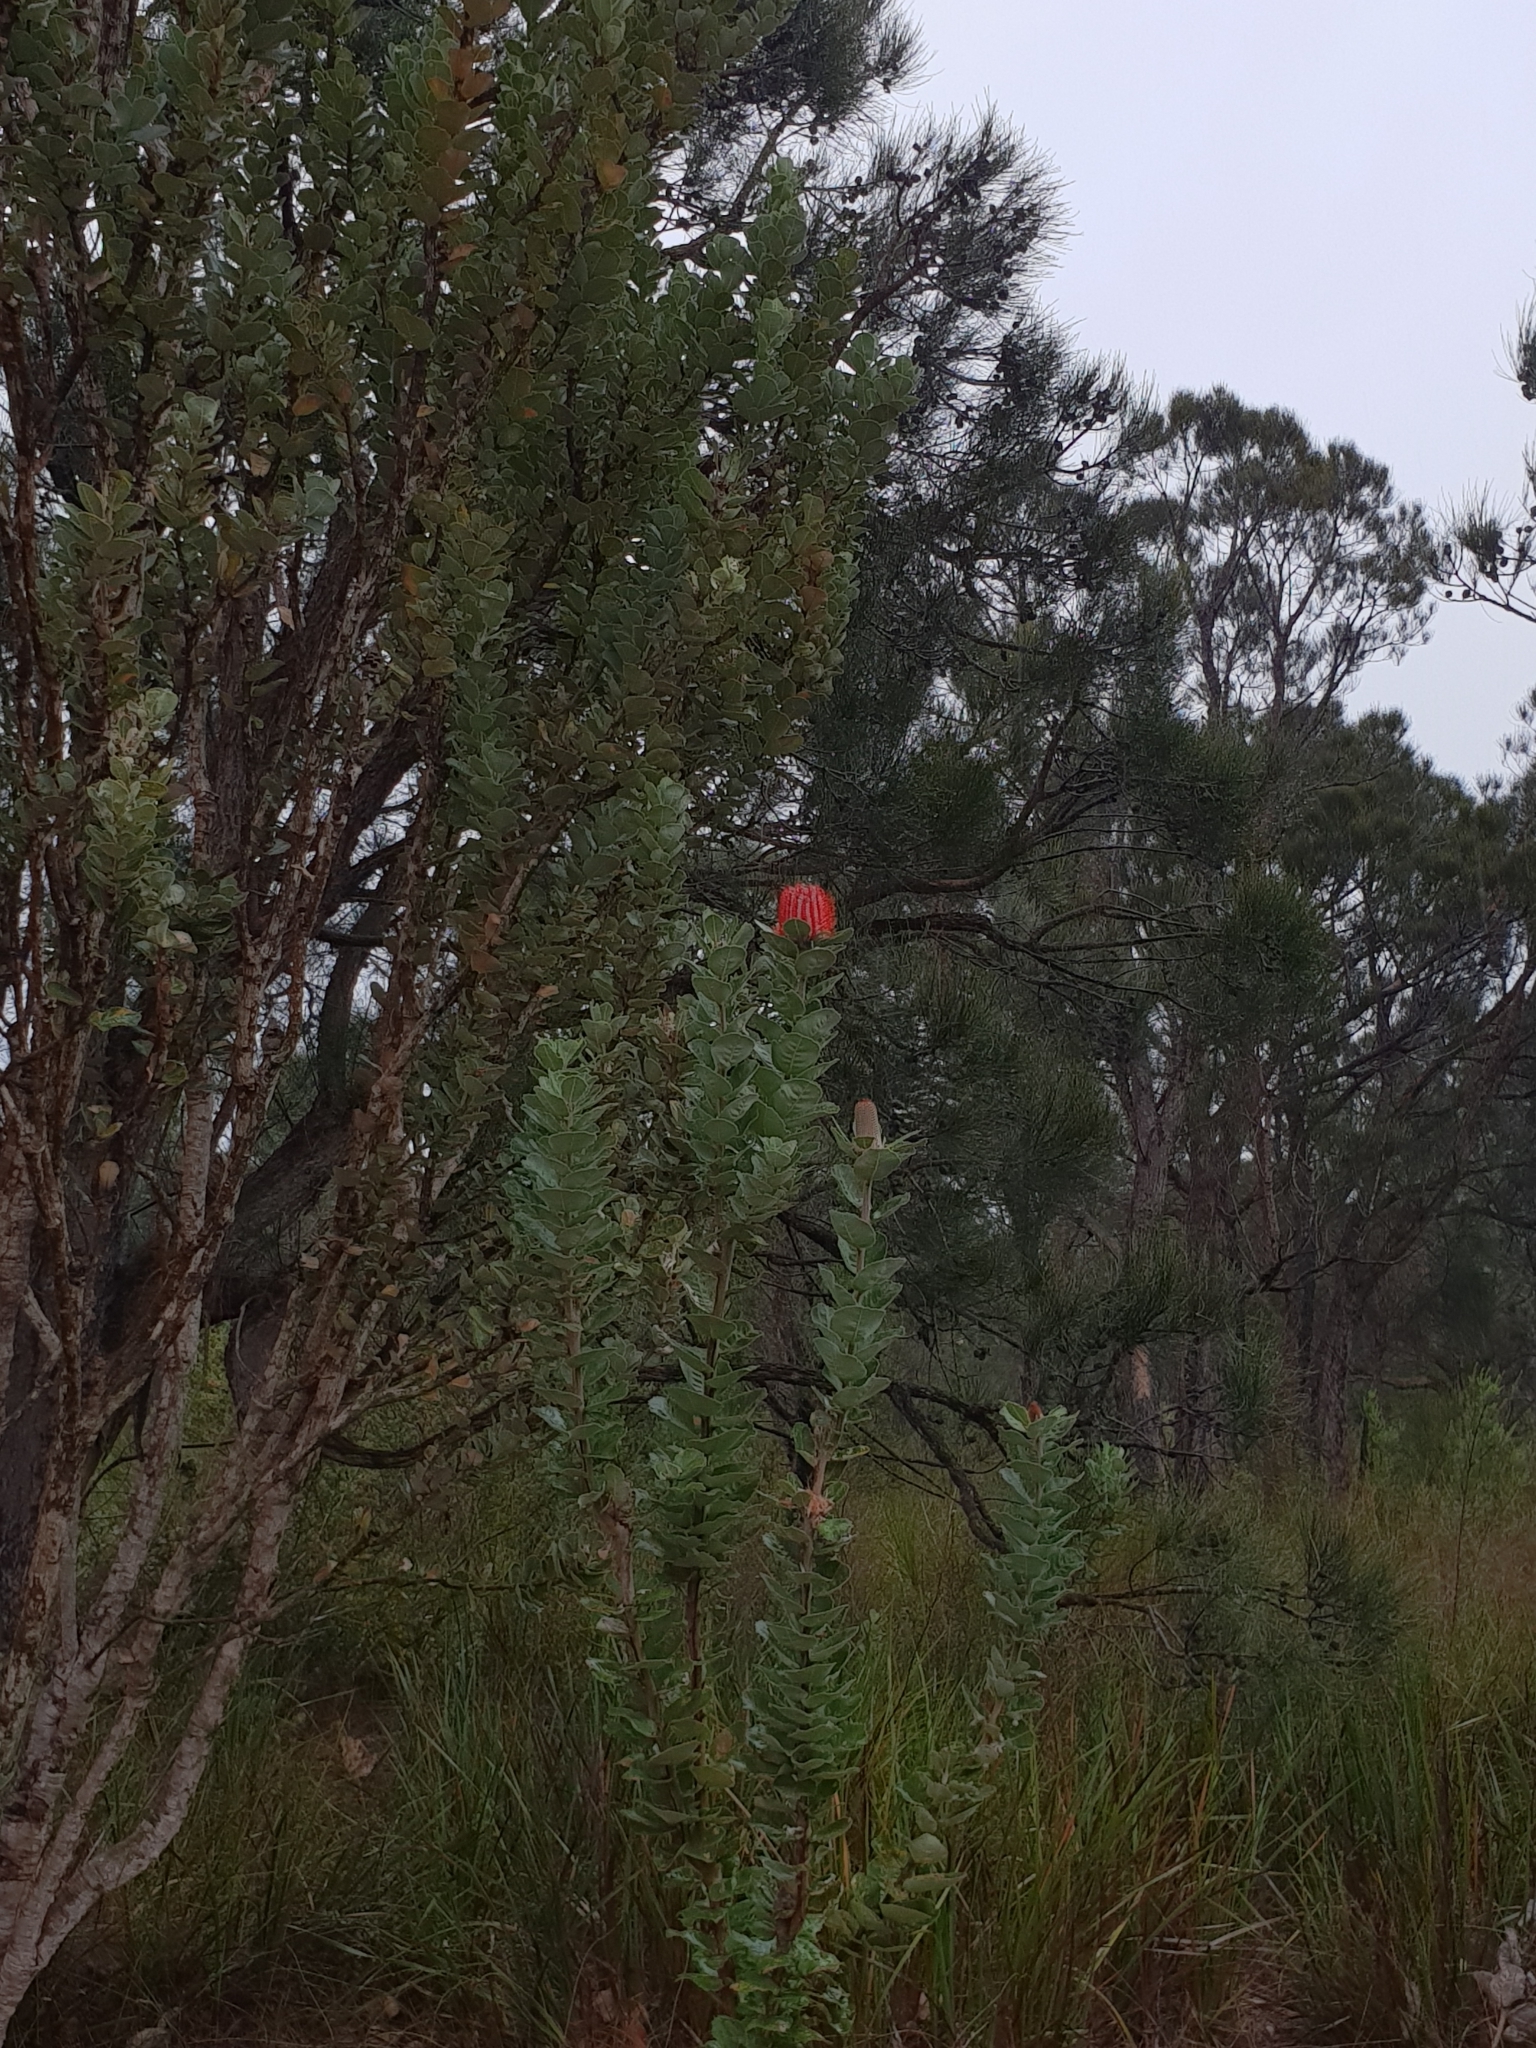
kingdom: Plantae
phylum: Tracheophyta
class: Magnoliopsida
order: Proteales
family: Proteaceae
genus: Banksia
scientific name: Banksia coccinea
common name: Scarlet banksia
